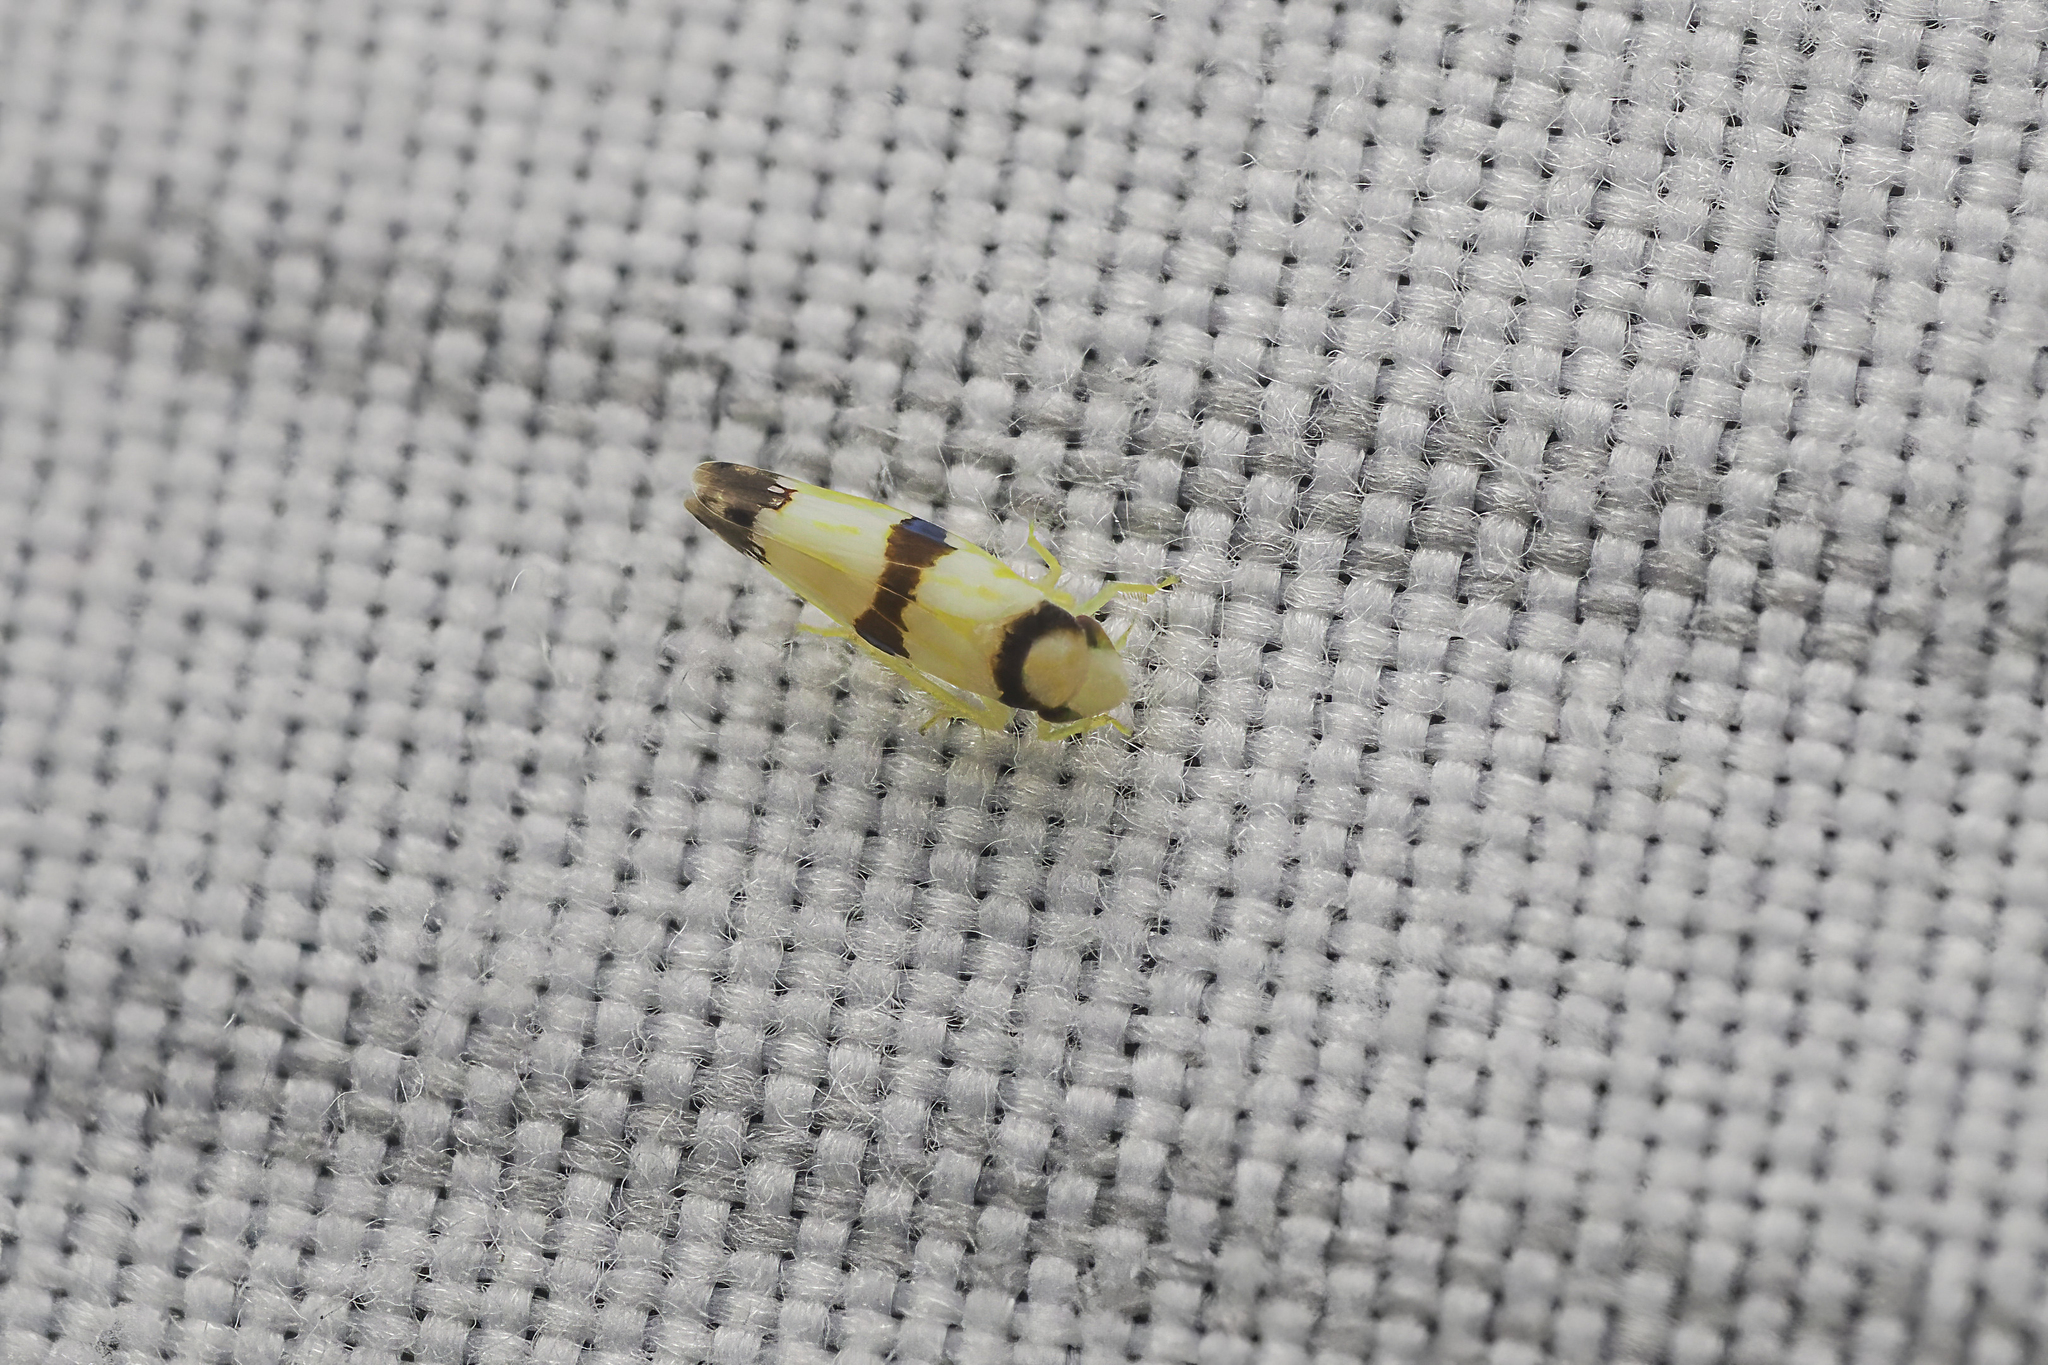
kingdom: Animalia
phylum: Arthropoda
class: Insecta
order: Hemiptera
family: Cicadellidae
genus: Erythroneura
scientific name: Erythroneura calycula
